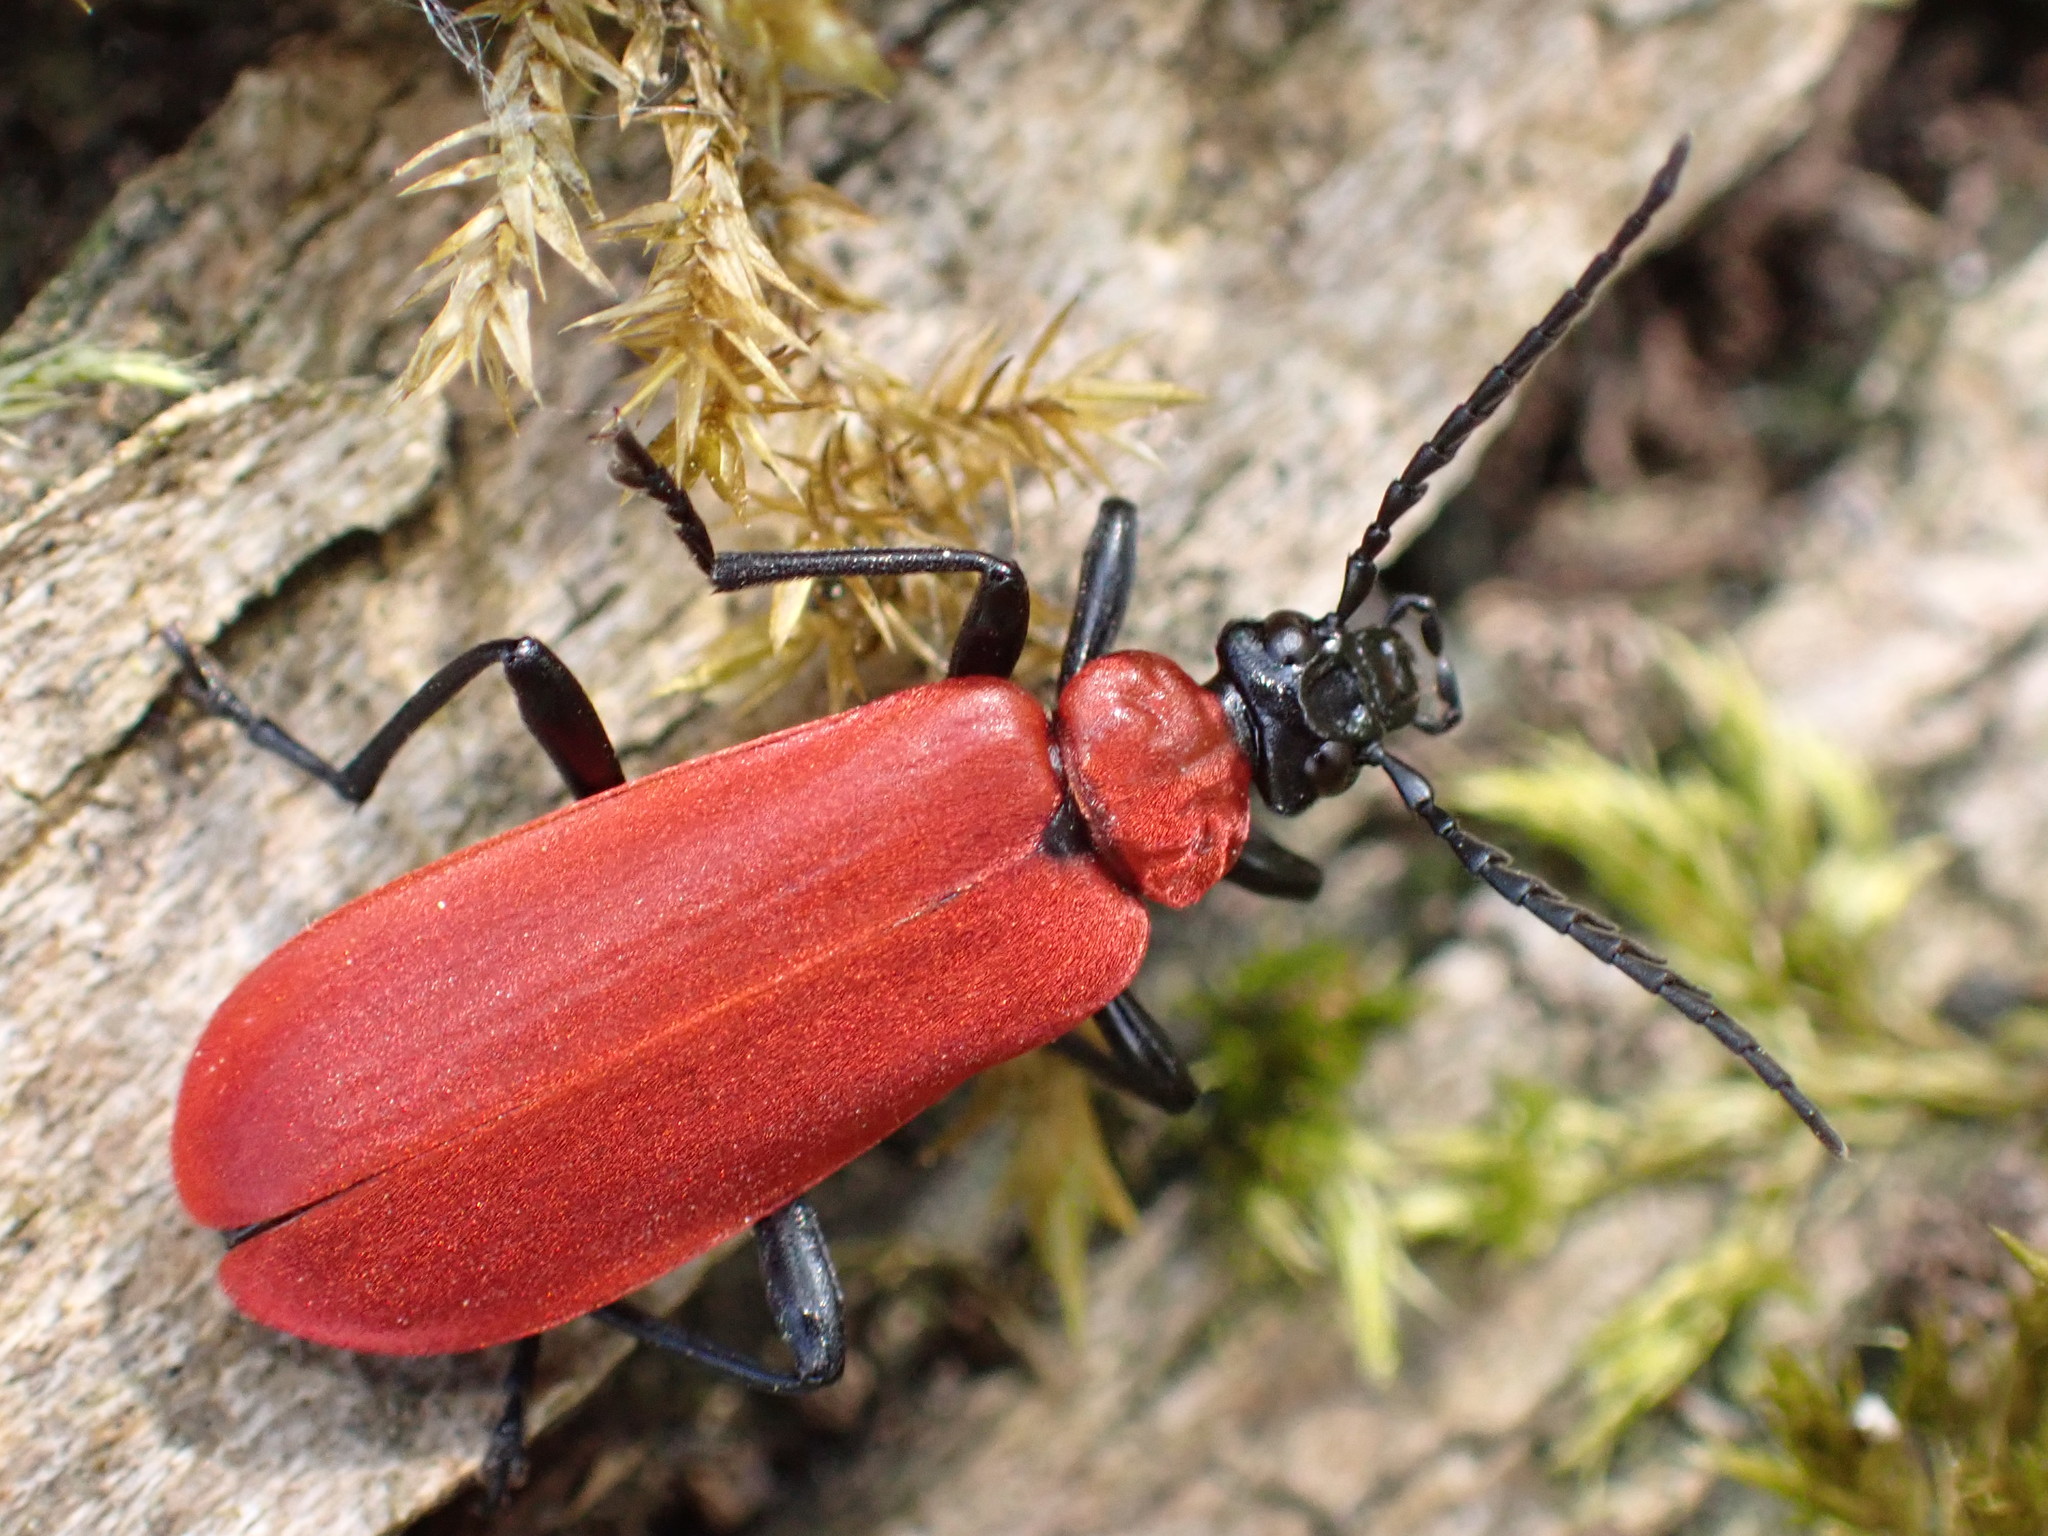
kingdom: Animalia
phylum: Arthropoda
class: Insecta
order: Coleoptera
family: Pyrochroidae
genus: Pyrochroa
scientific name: Pyrochroa coccinea
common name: Black-headed cardinal beetle
